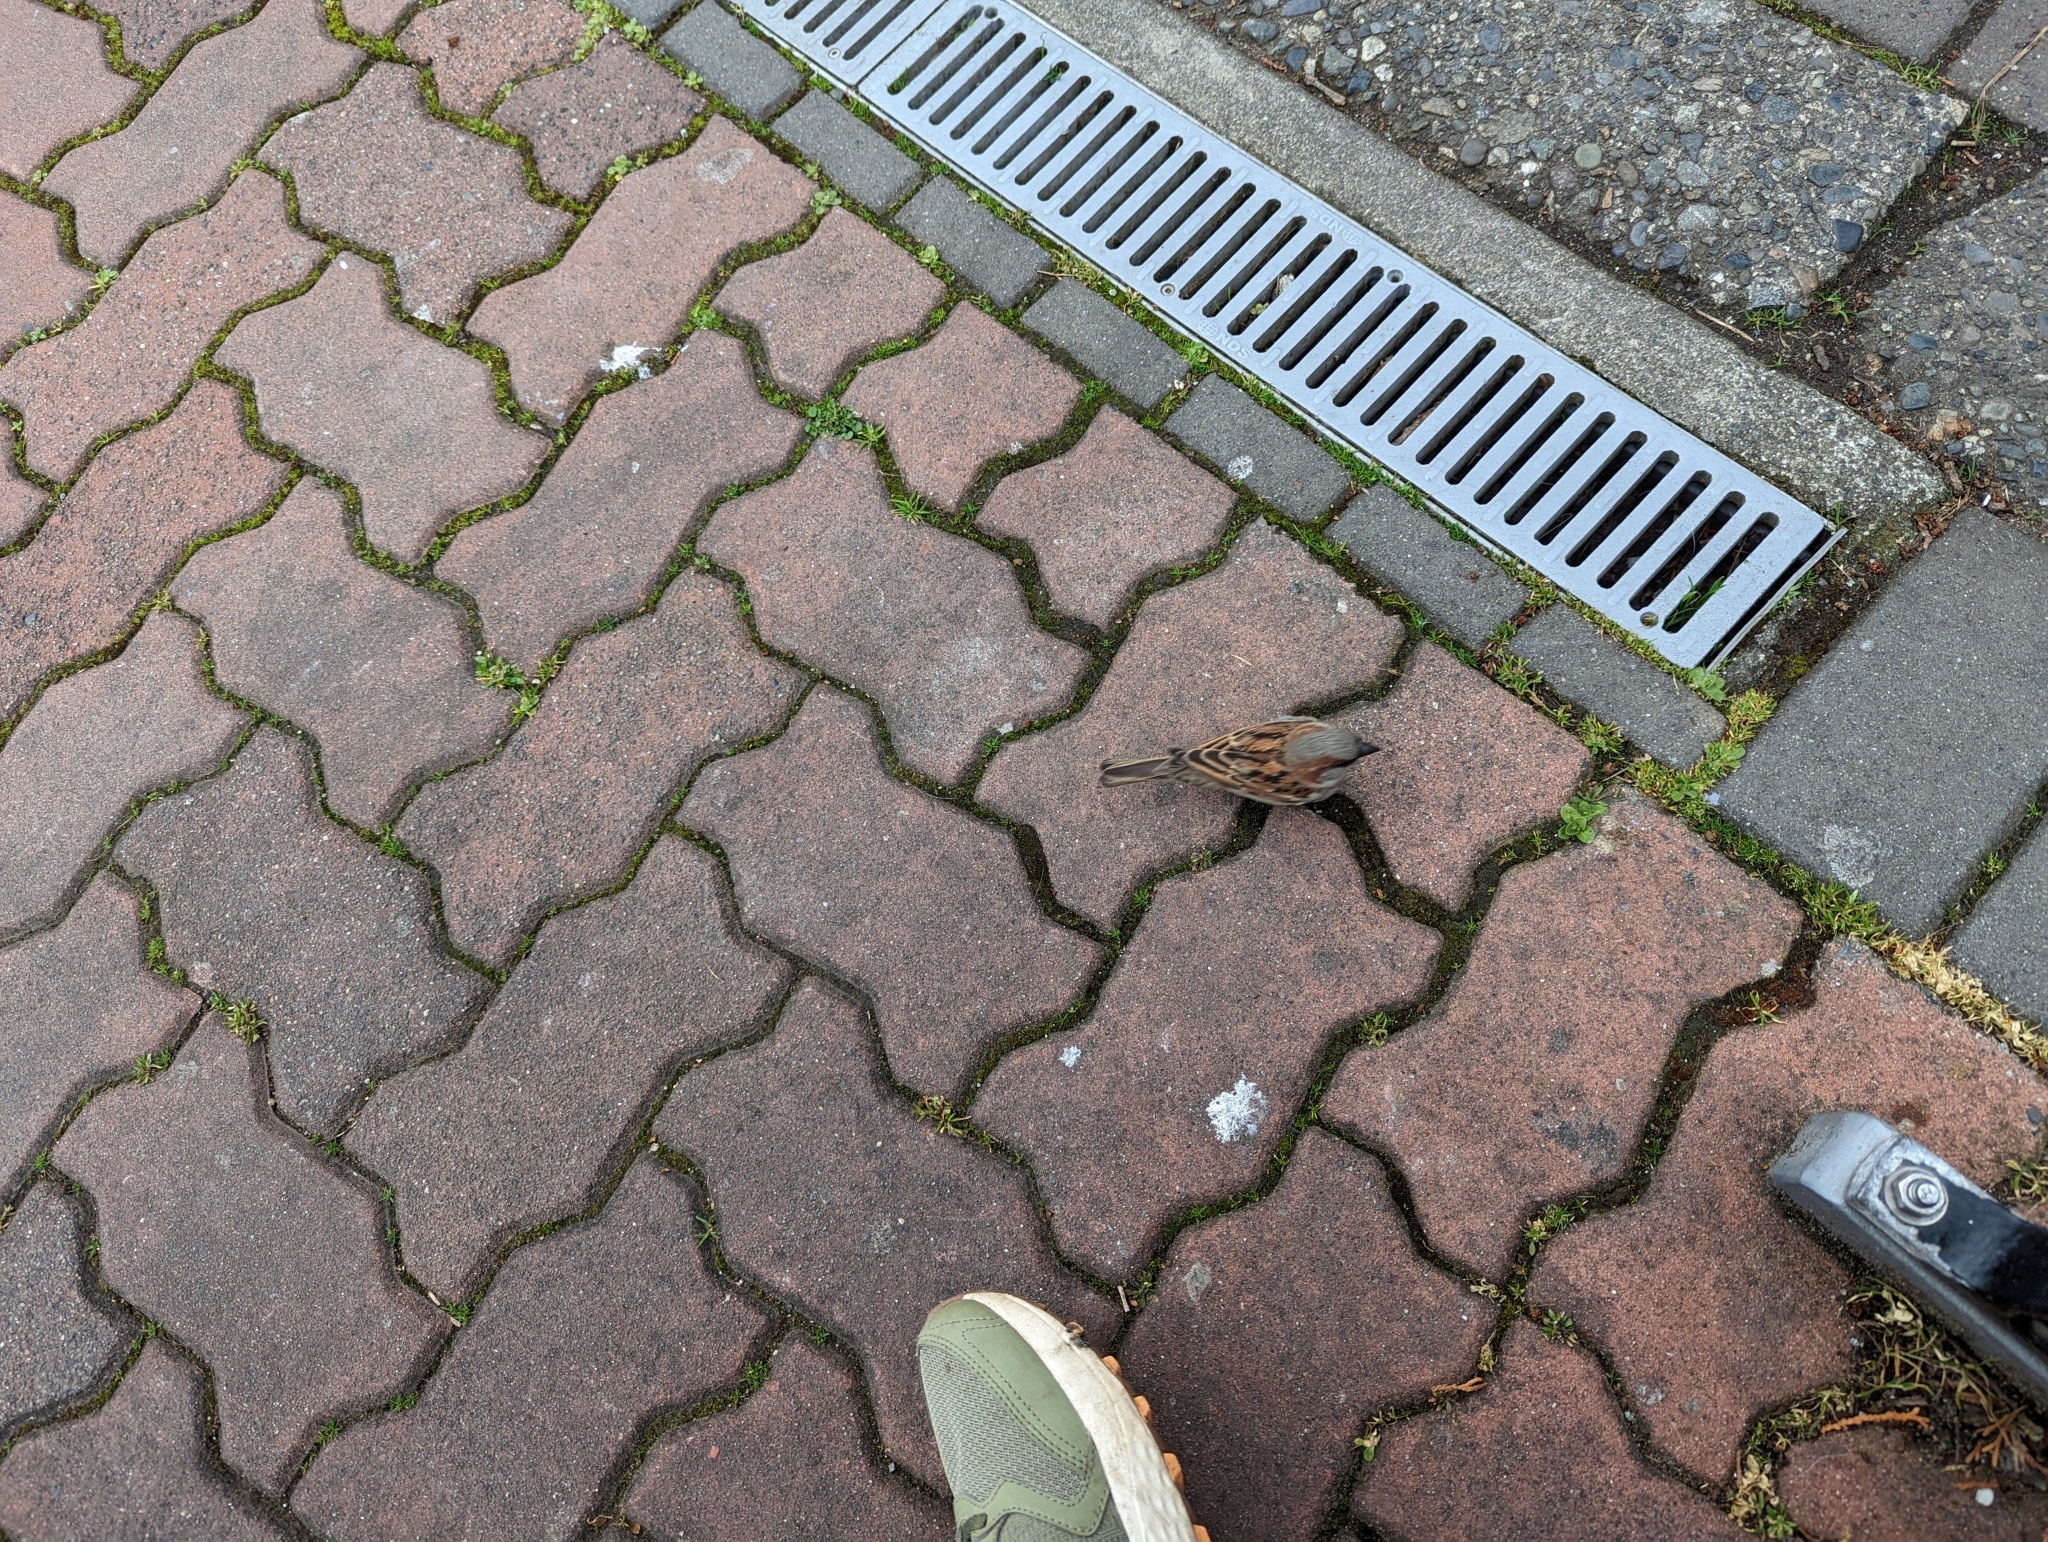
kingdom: Animalia
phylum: Chordata
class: Aves
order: Passeriformes
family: Passeridae
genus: Passer
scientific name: Passer domesticus
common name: House sparrow
